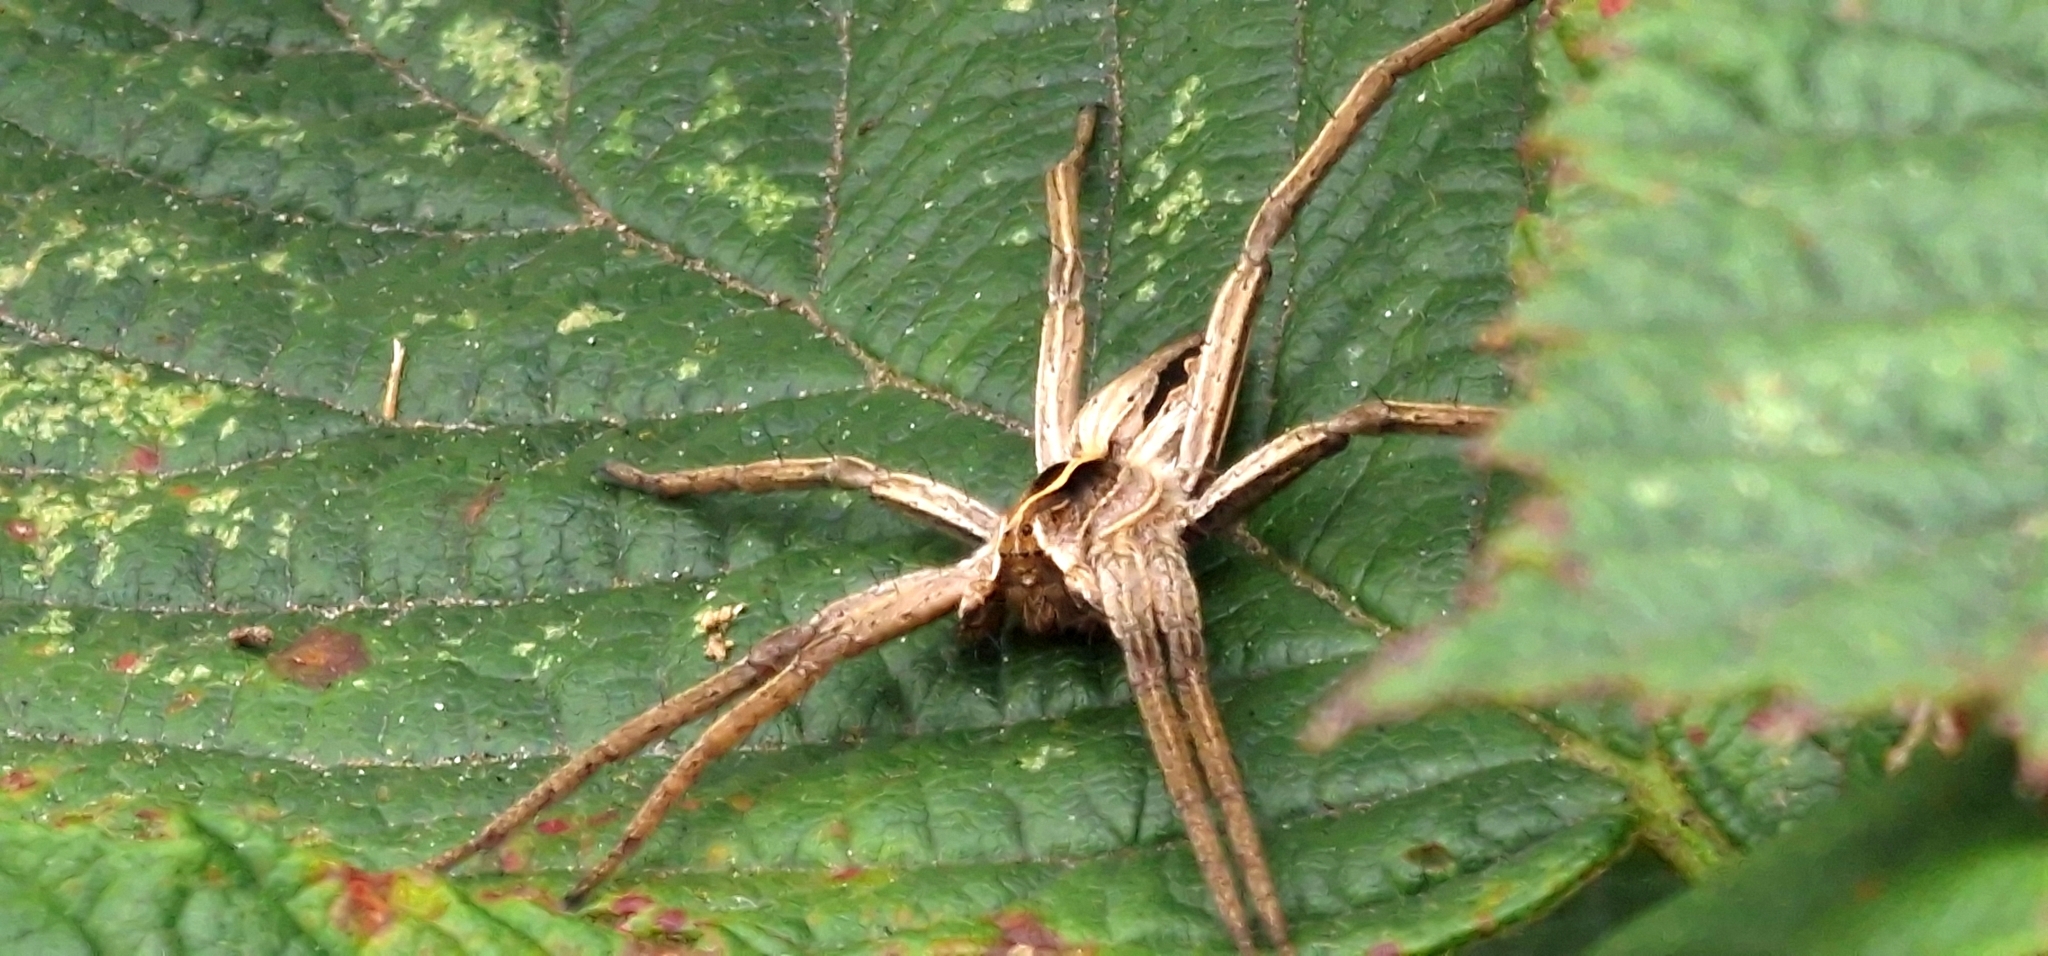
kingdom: Animalia
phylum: Arthropoda
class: Arachnida
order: Araneae
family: Pisauridae
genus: Pisaura
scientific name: Pisaura mirabilis
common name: Tent spider
